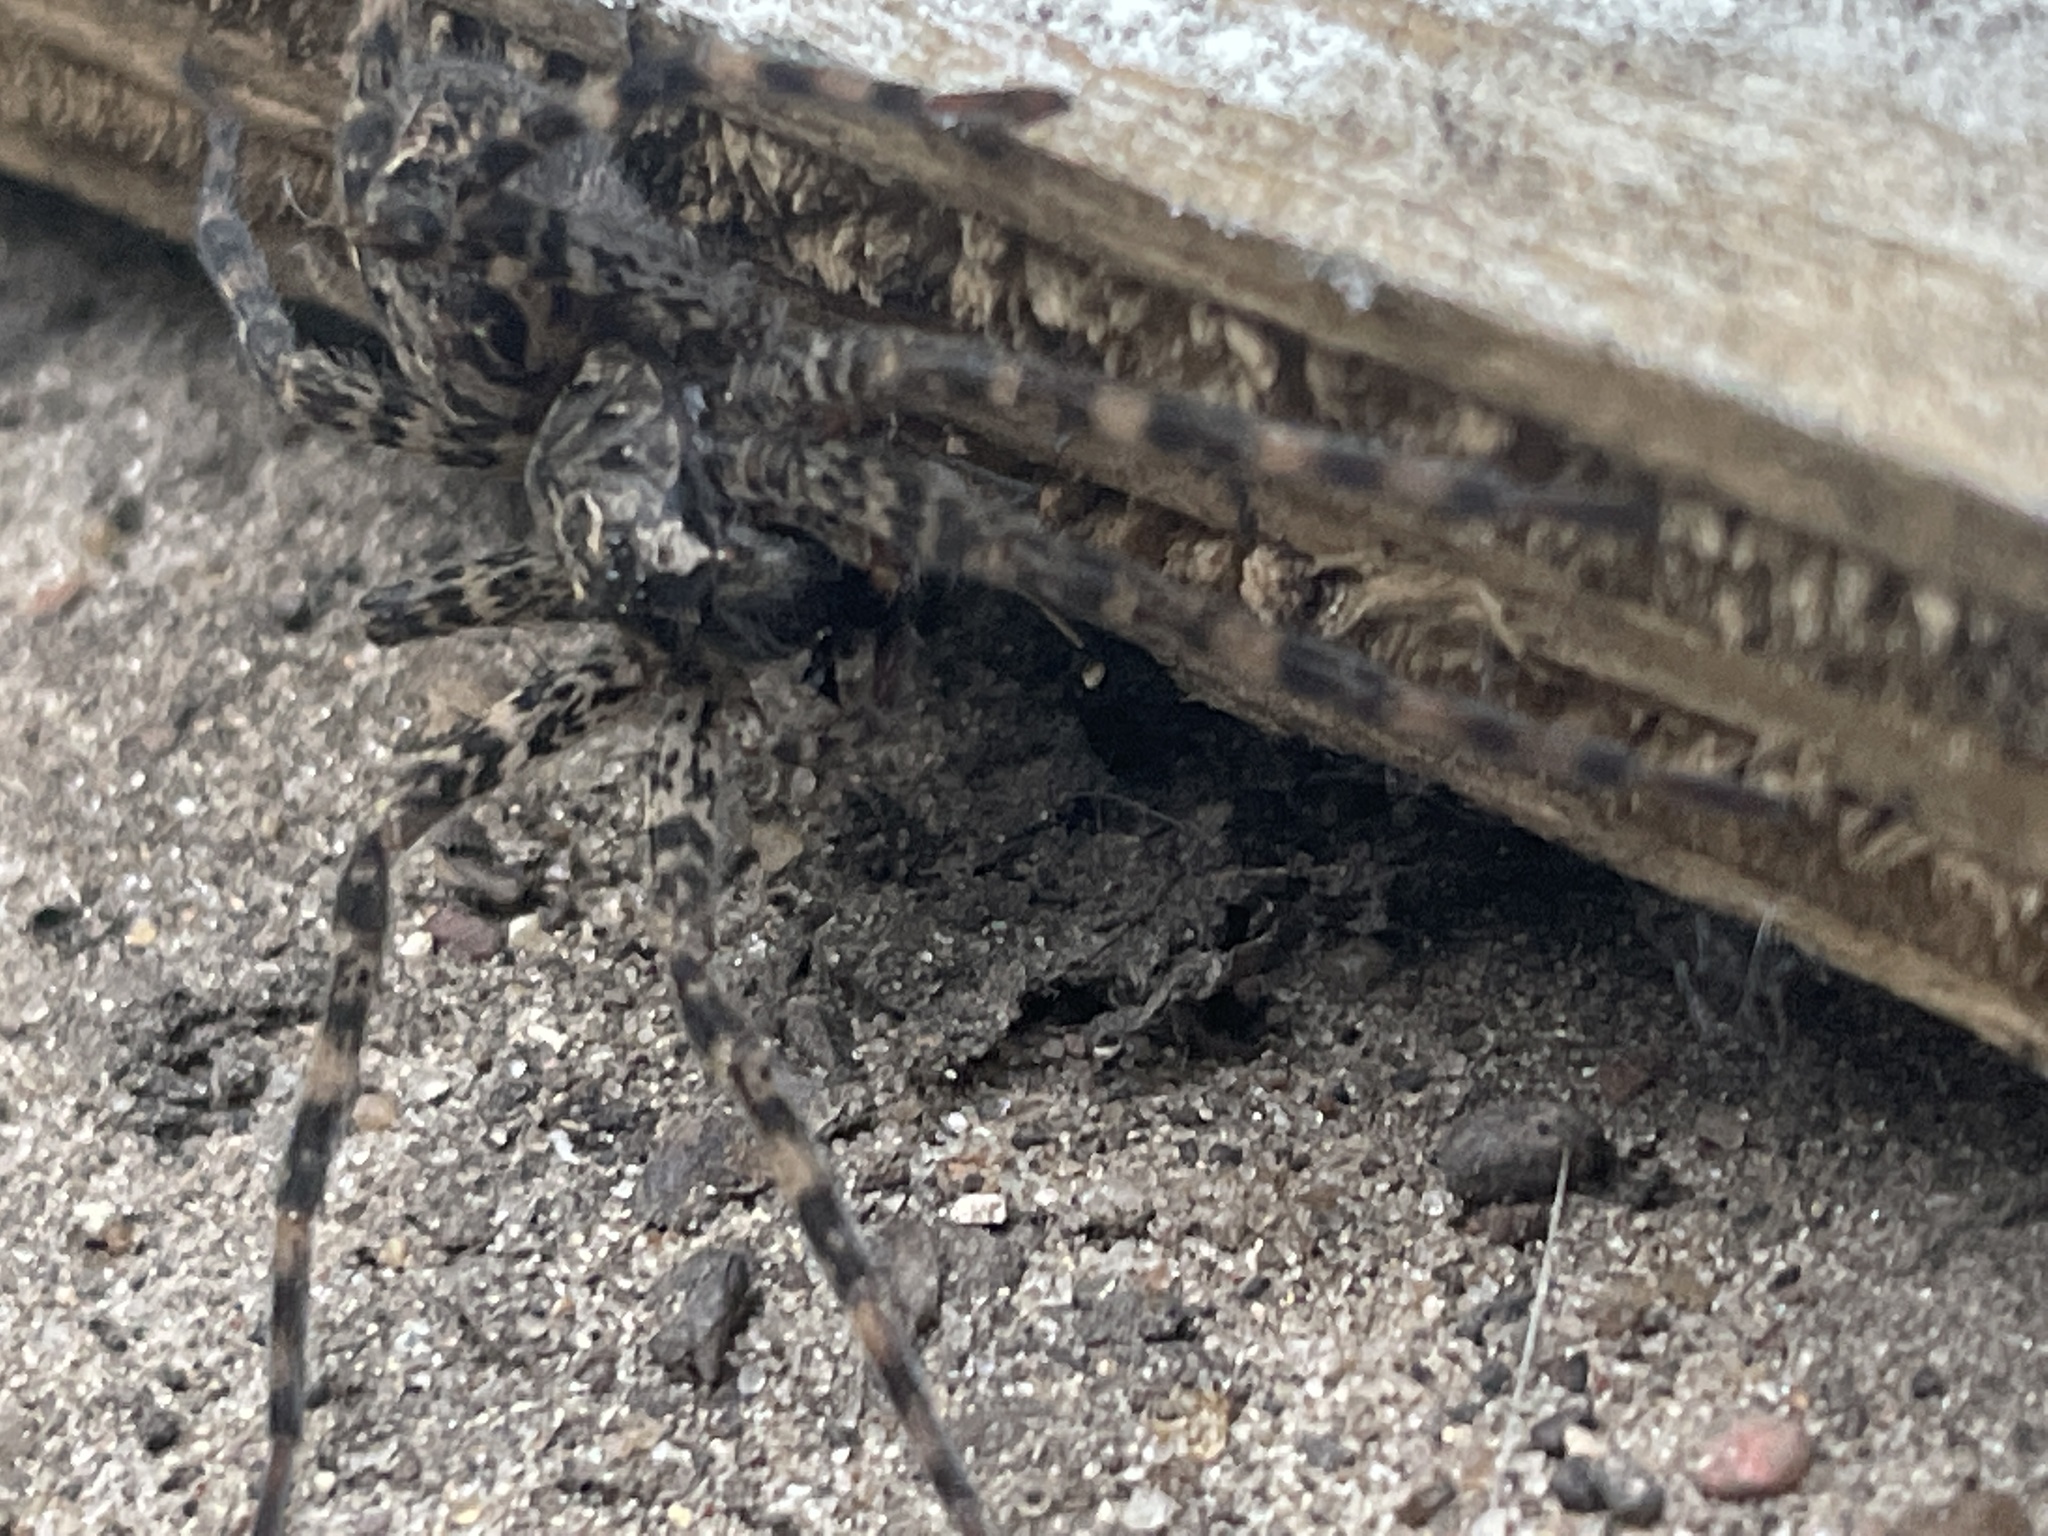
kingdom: Animalia
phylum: Arthropoda
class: Arachnida
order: Araneae
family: Pisauridae
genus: Dolomedes
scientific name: Dolomedes tenebrosus
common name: Dark fishing spider
